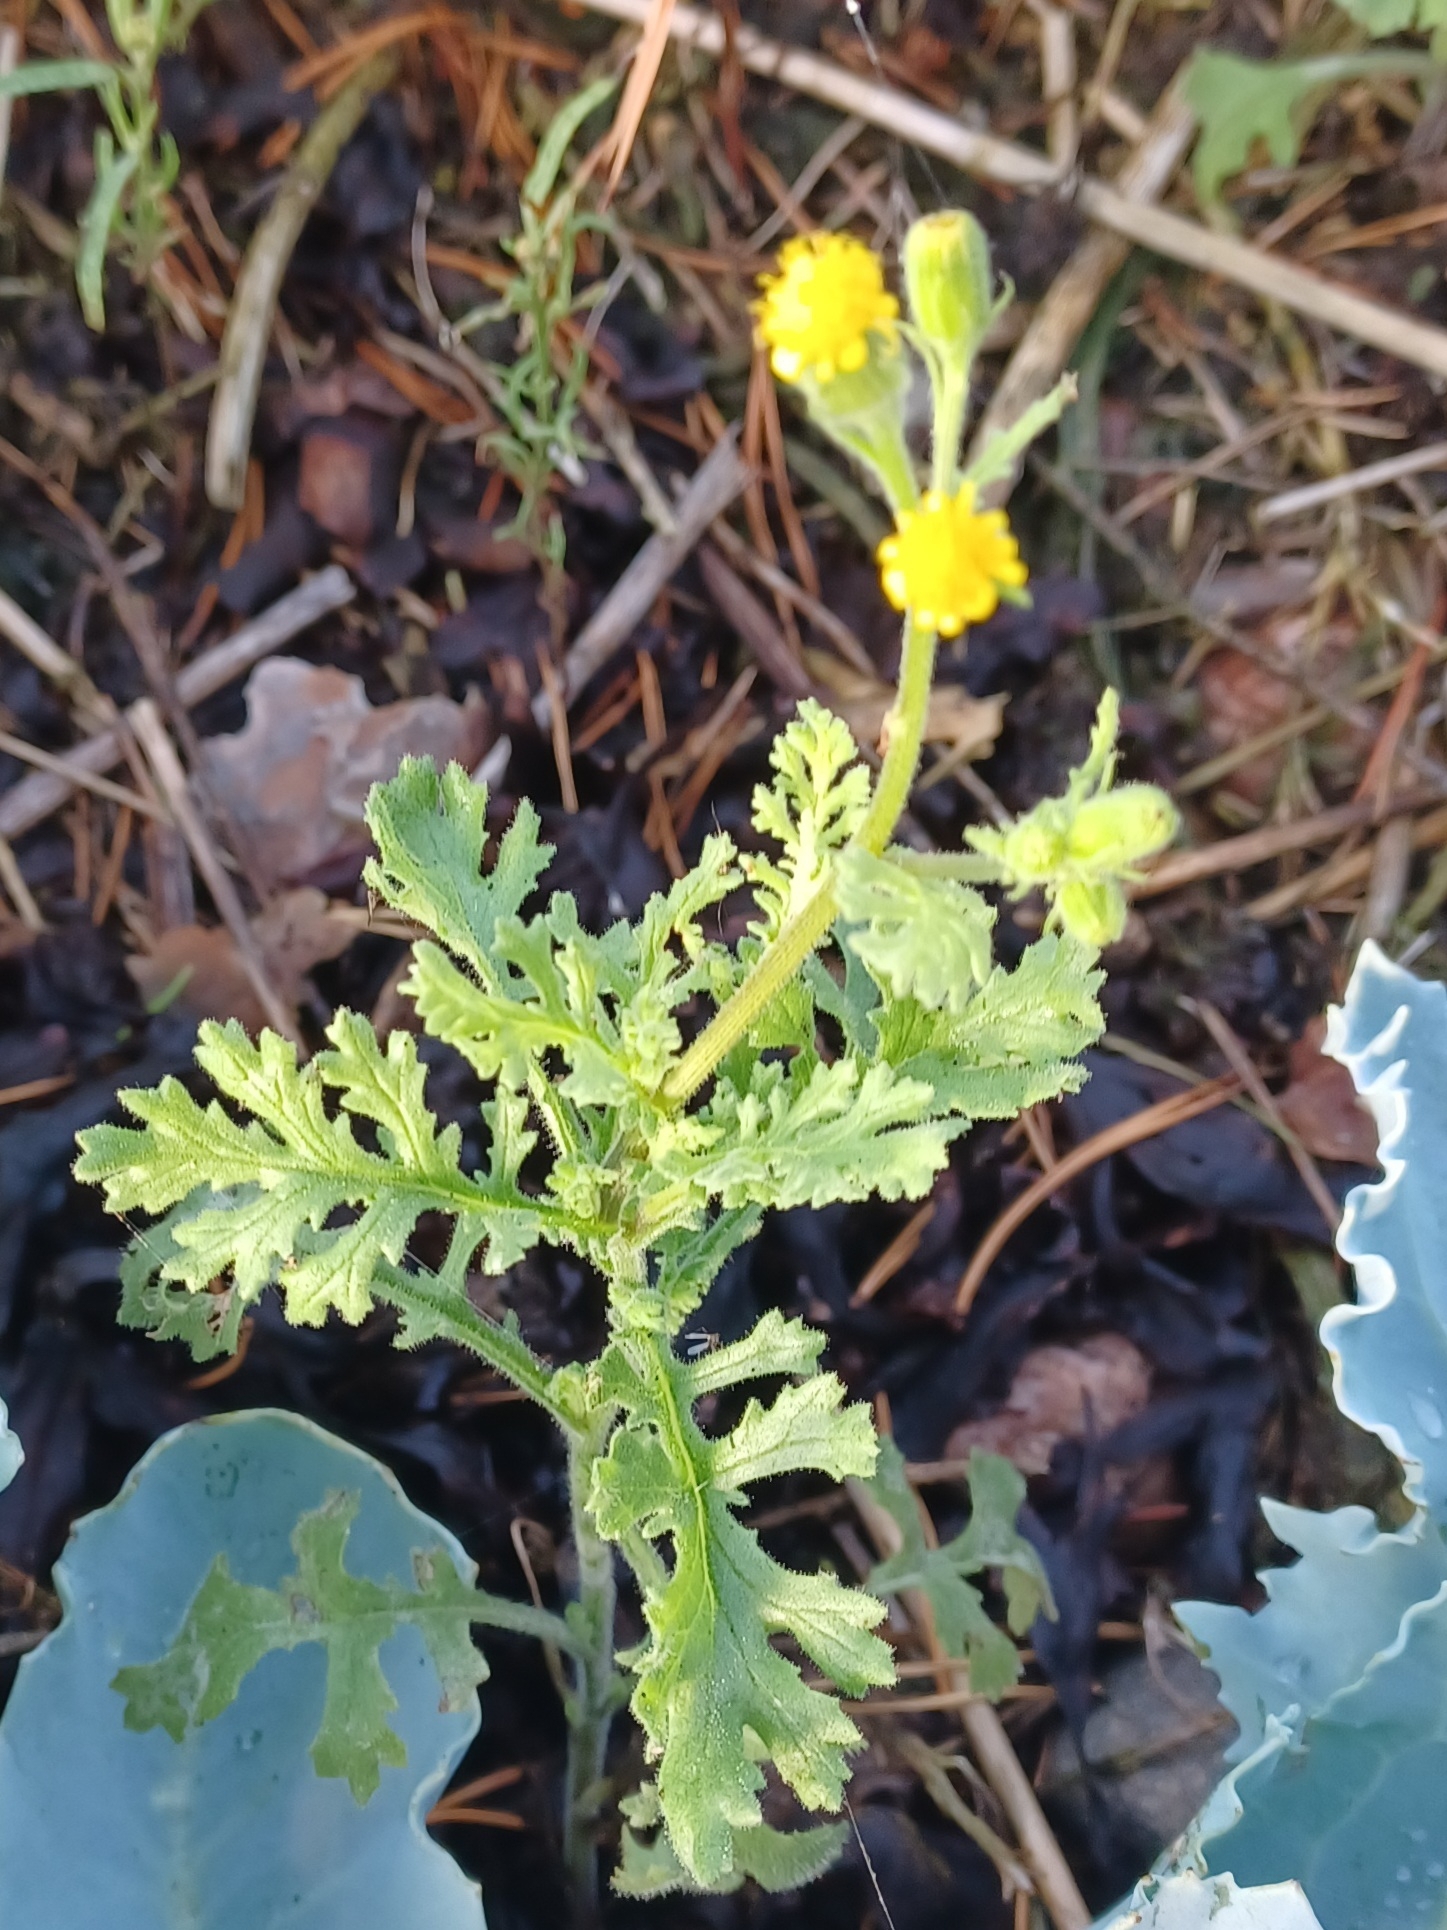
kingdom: Plantae
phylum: Tracheophyta
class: Magnoliopsida
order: Asterales
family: Asteraceae
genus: Senecio
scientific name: Senecio viscosus
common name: Sticky groundsel
